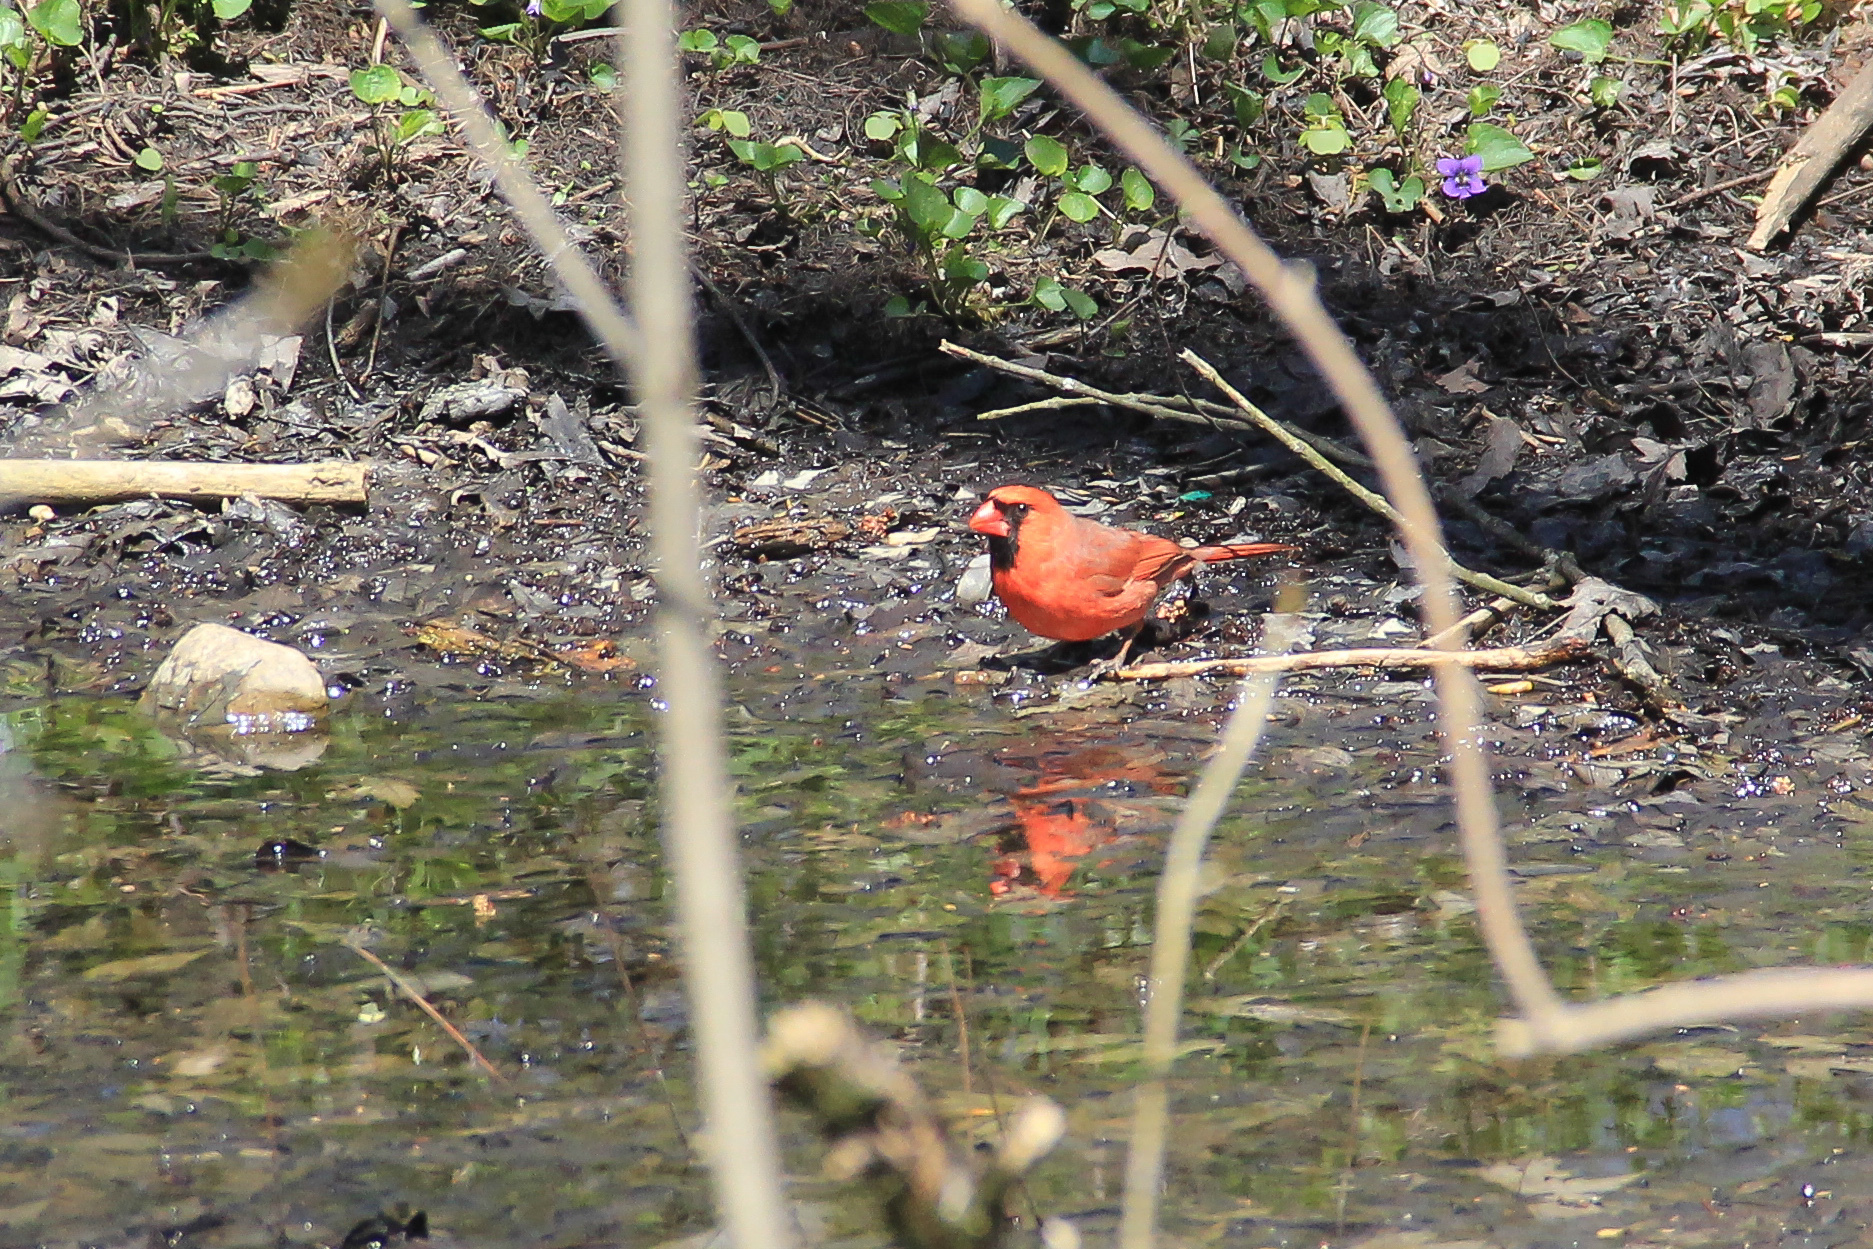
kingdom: Animalia
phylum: Chordata
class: Aves
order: Passeriformes
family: Cardinalidae
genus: Cardinalis
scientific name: Cardinalis cardinalis
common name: Northern cardinal
